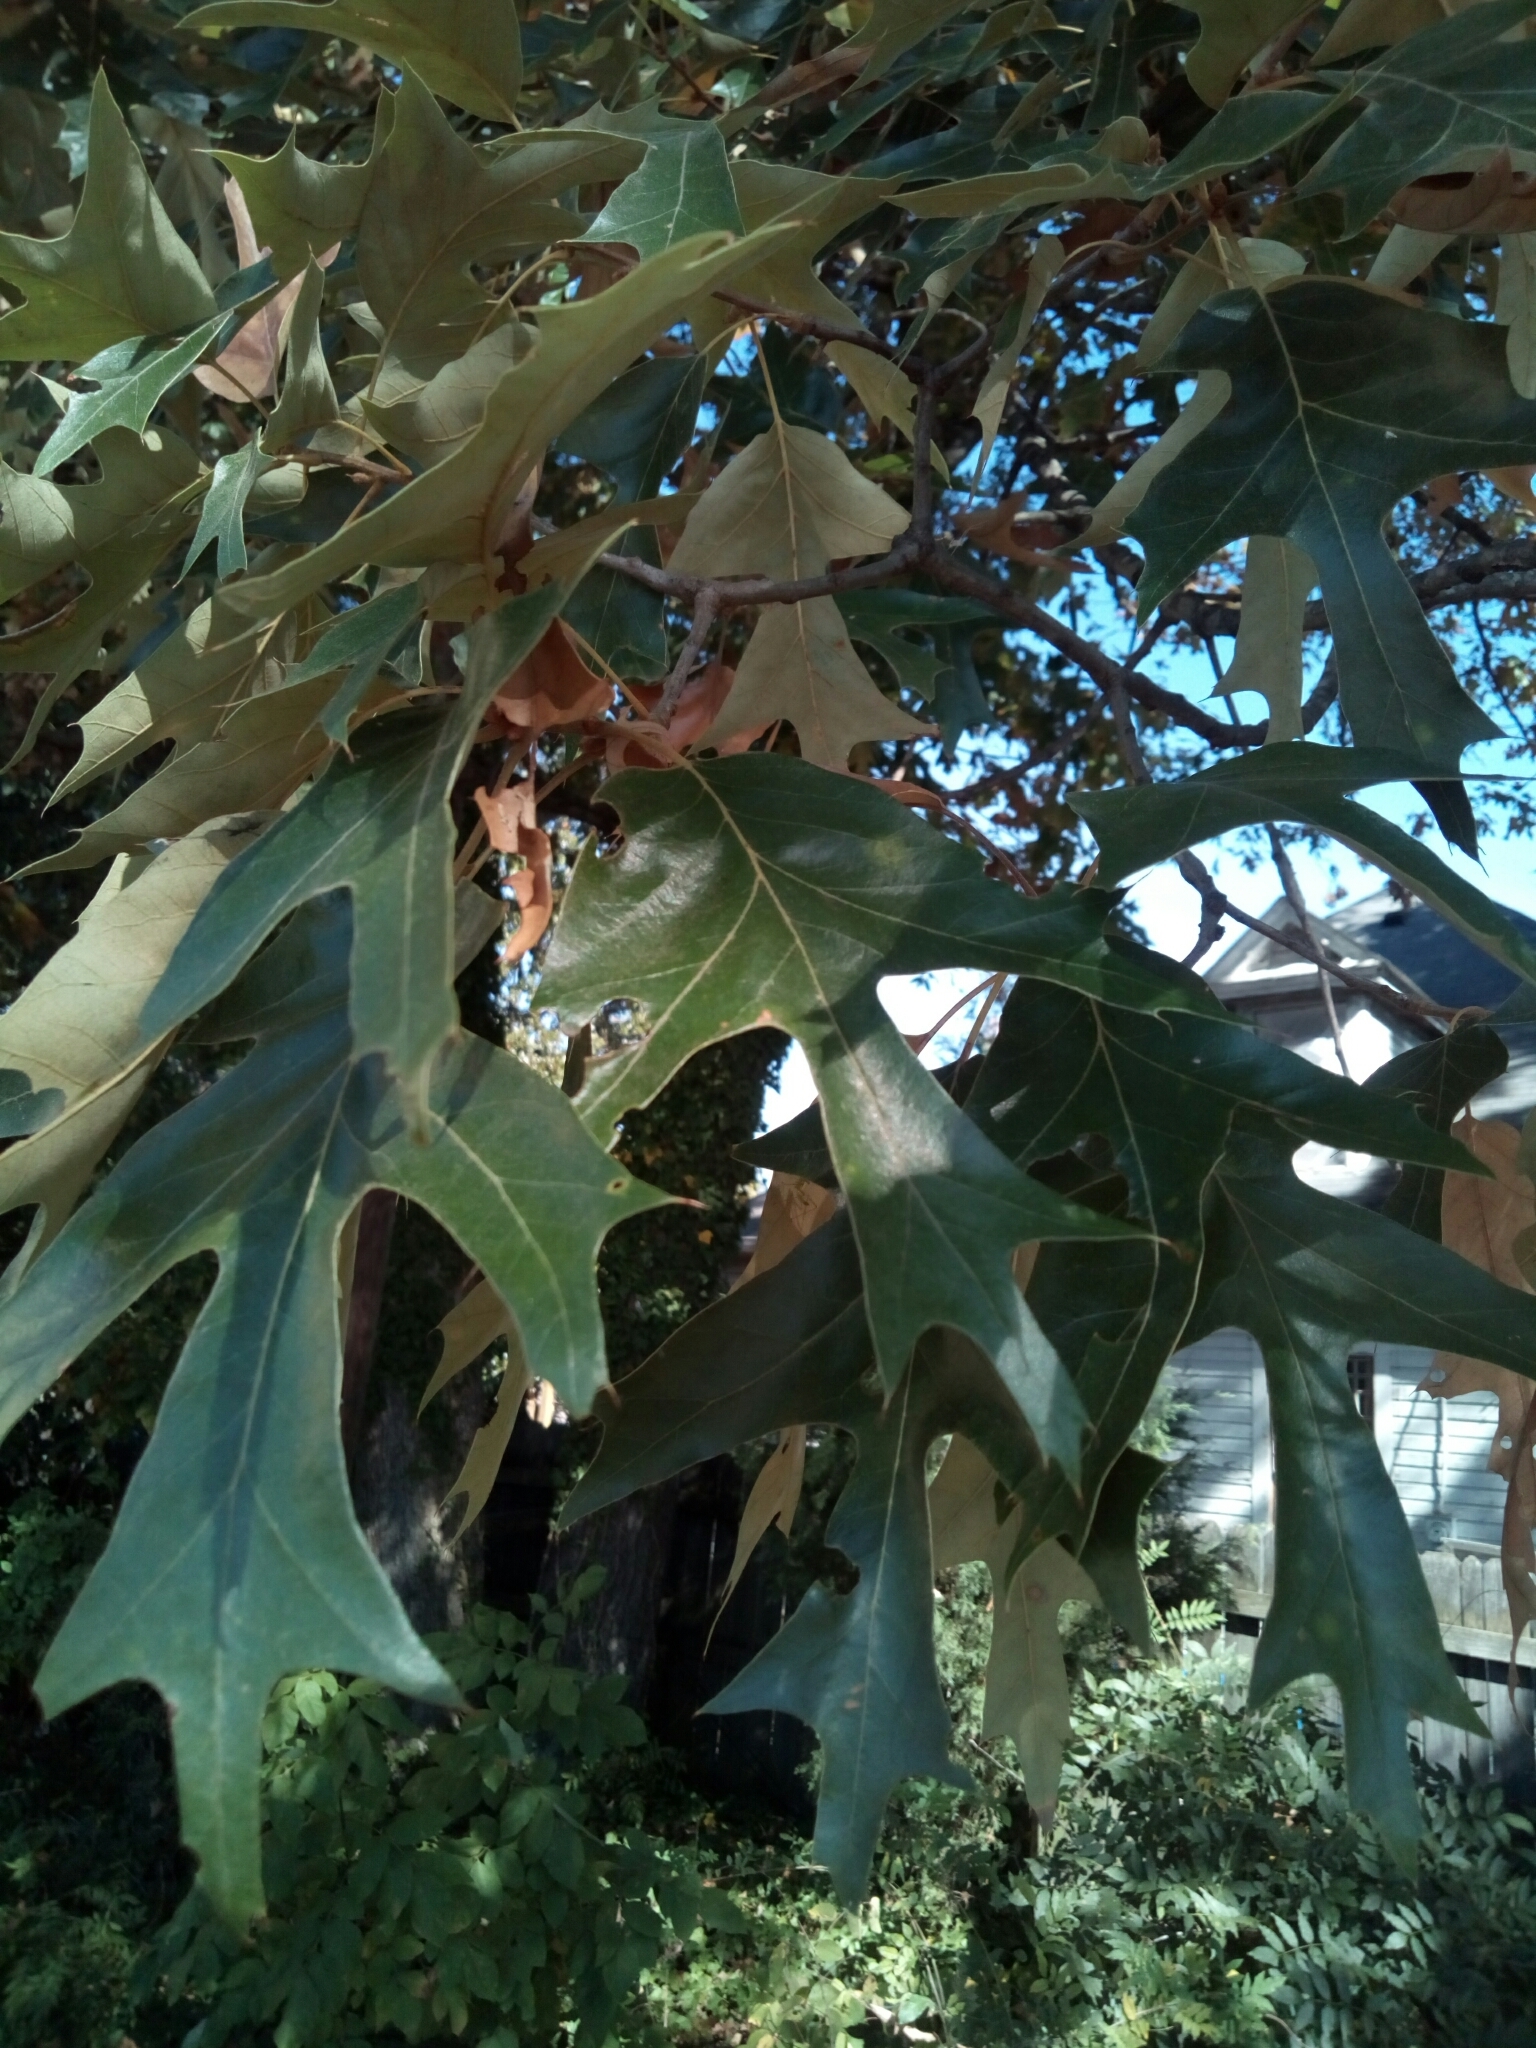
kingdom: Plantae
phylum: Tracheophyta
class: Magnoliopsida
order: Fagales
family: Fagaceae
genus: Quercus
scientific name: Quercus falcata
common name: Southern red oak
